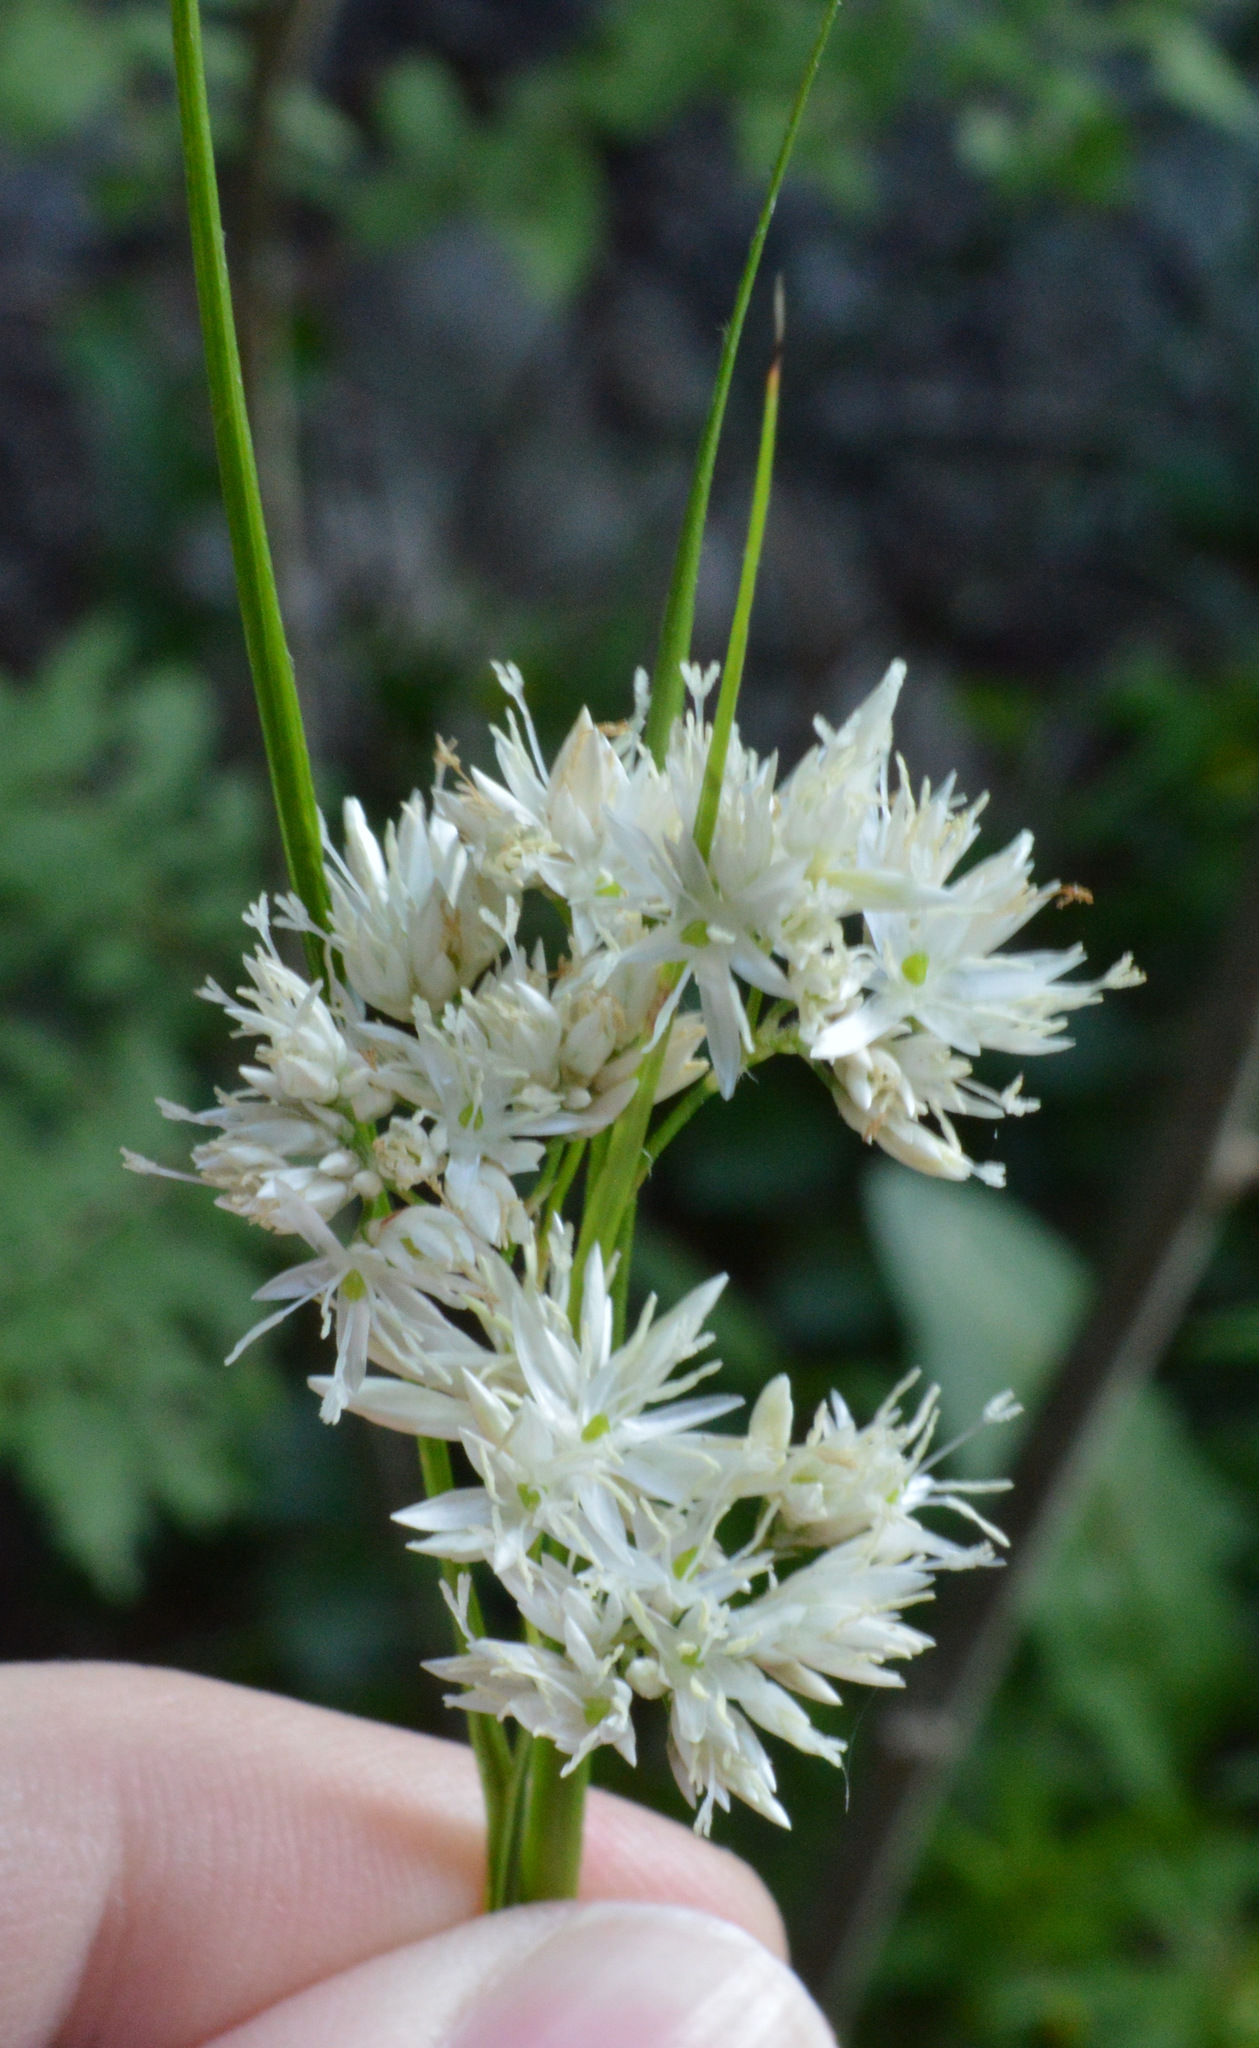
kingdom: Plantae
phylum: Tracheophyta
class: Liliopsida
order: Poales
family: Juncaceae
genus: Luzula
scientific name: Luzula nivea
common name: Snow-white wood-rush
